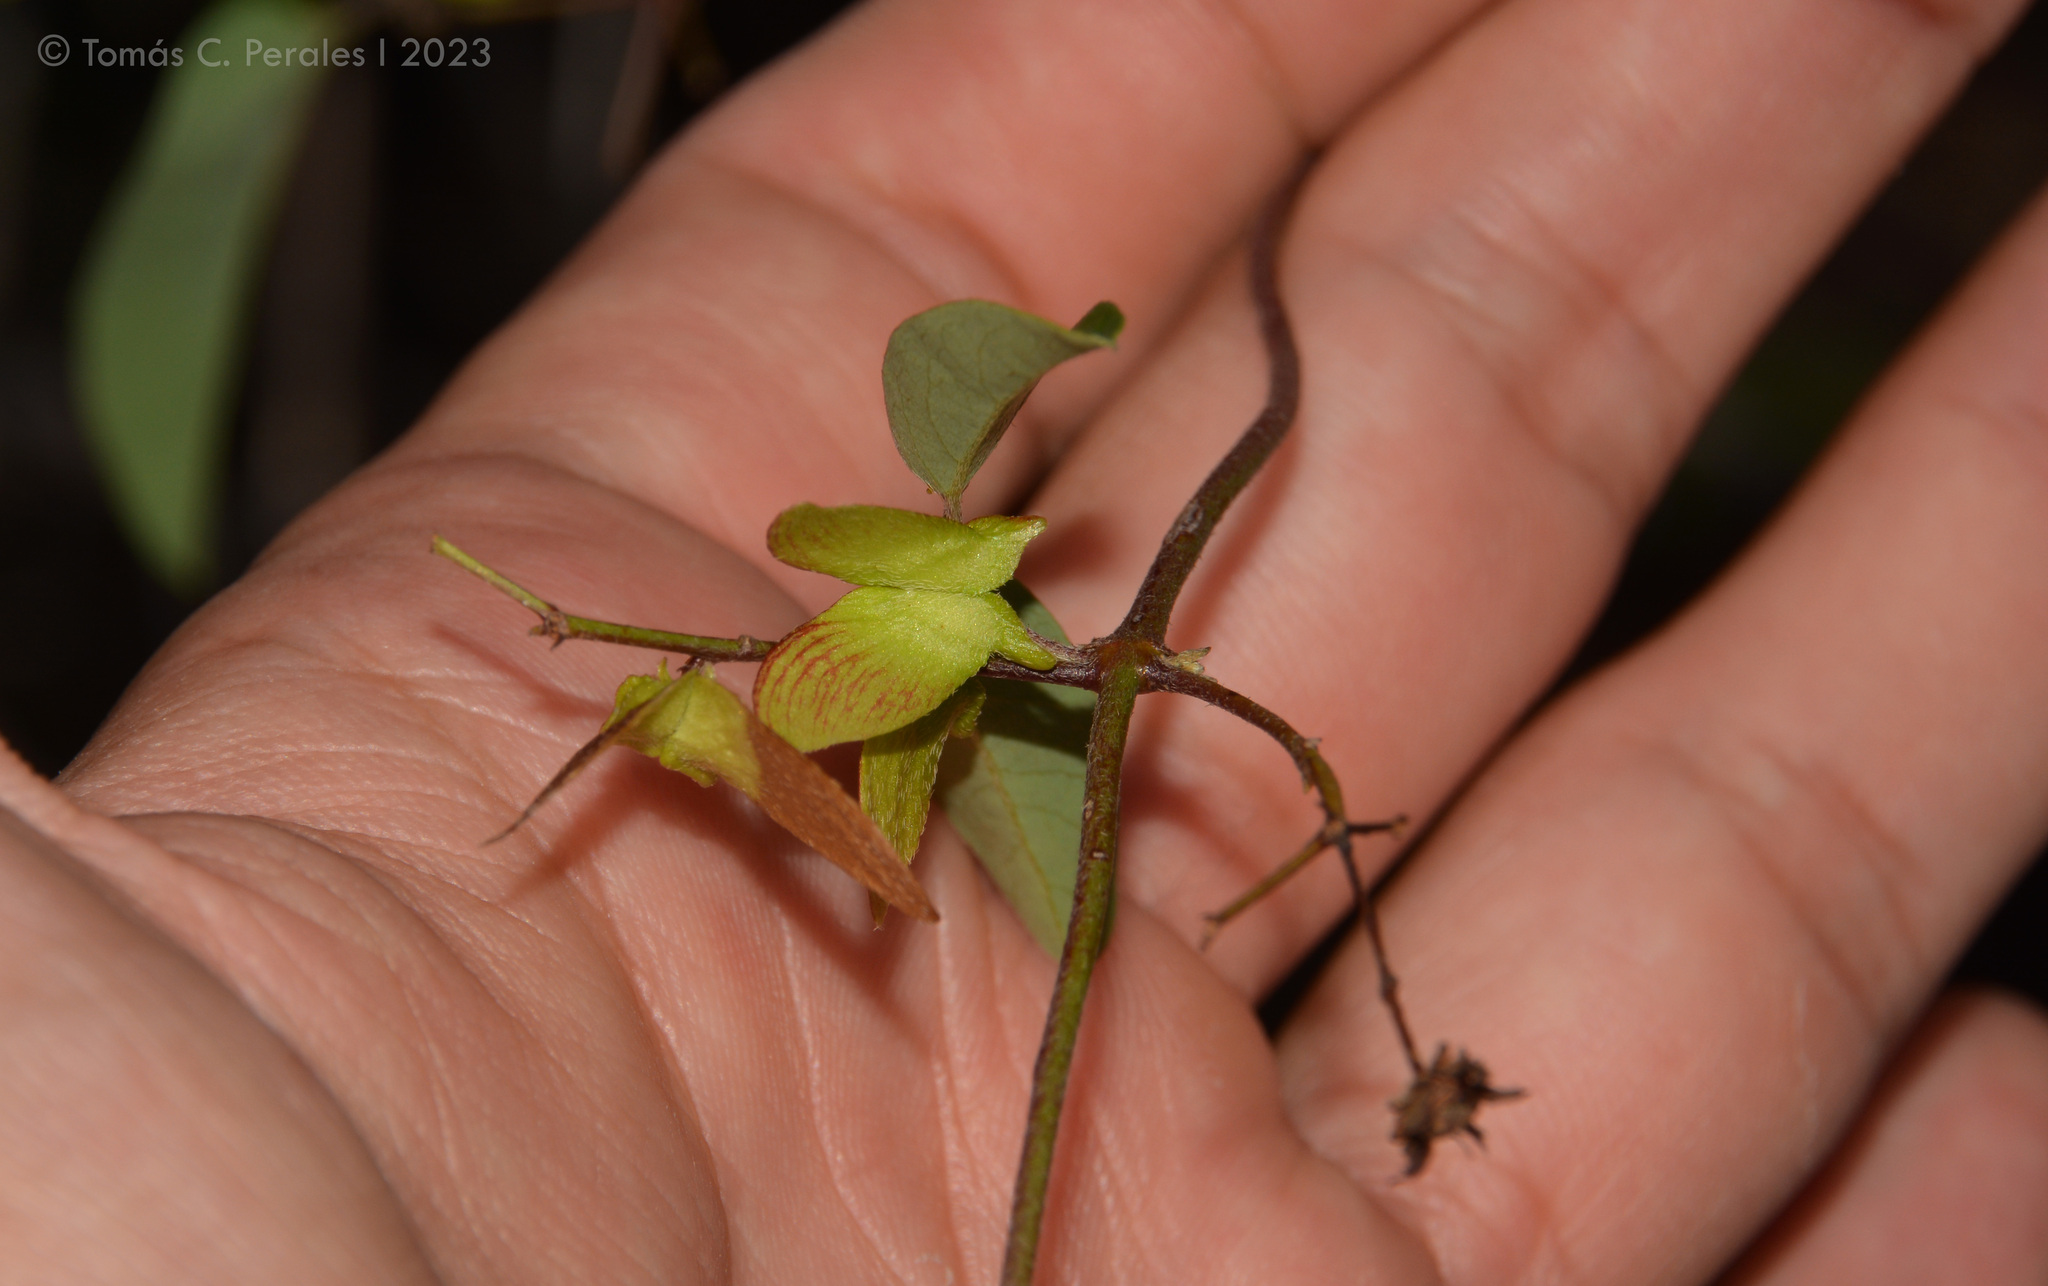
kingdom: Plantae
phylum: Tracheophyta
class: Magnoliopsida
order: Malpighiales
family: Malpighiaceae
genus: Janusia
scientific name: Janusia guaranitica
